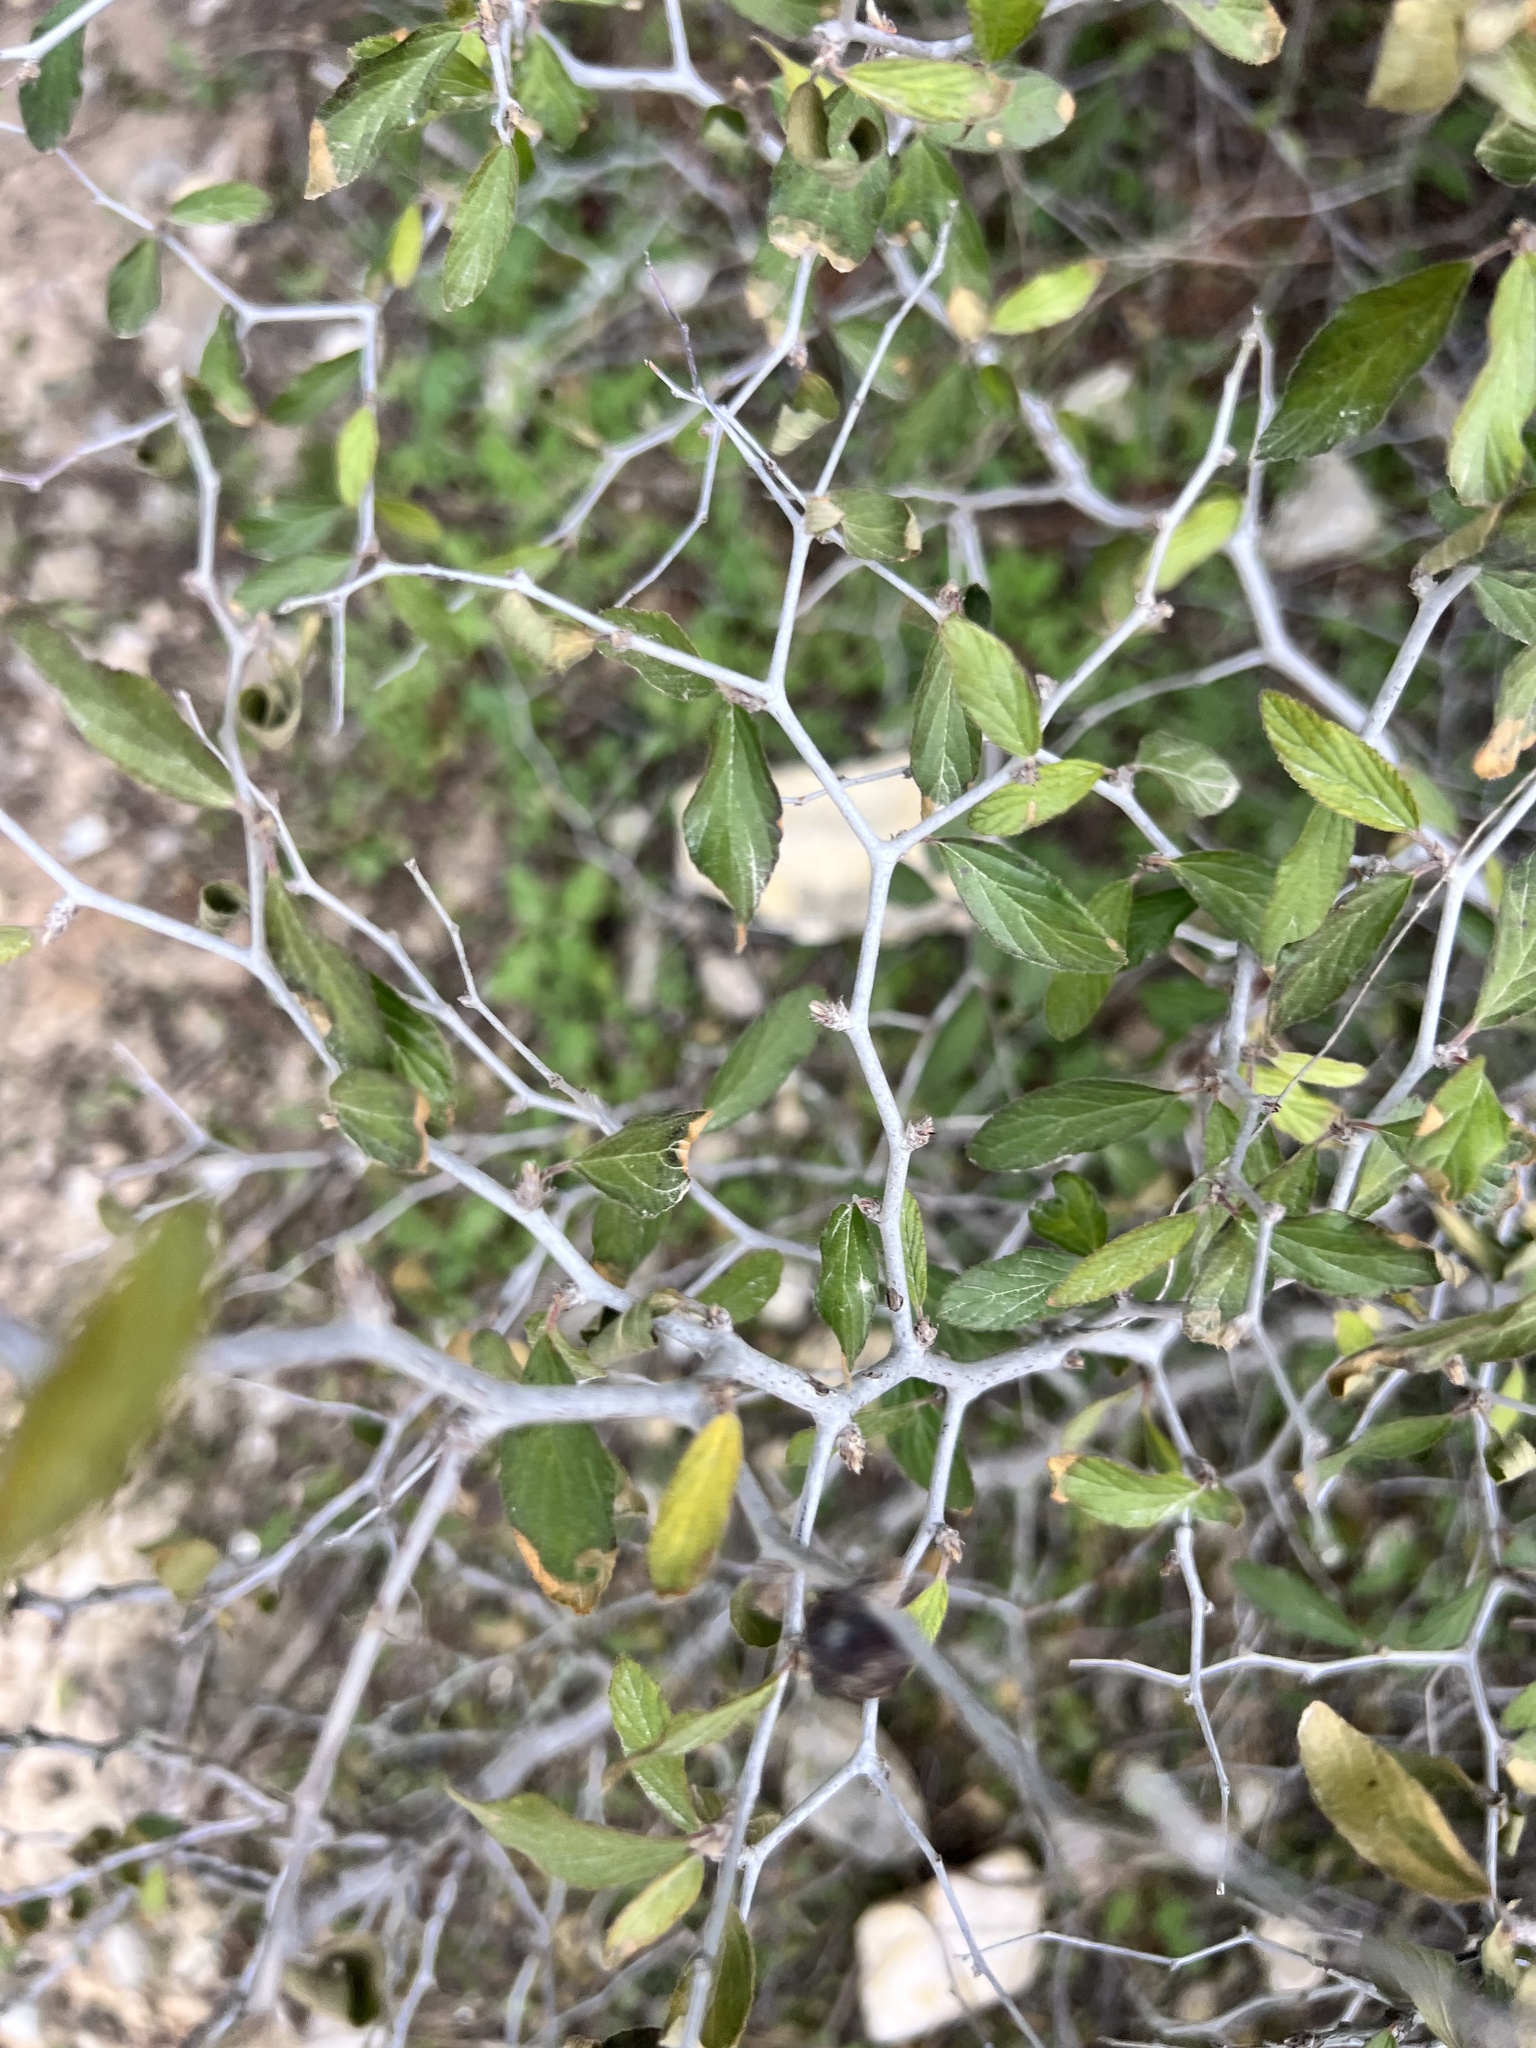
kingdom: Plantae
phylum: Tracheophyta
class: Magnoliopsida
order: Rosales
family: Rhamnaceae
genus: Colubrina
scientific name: Colubrina texensis
